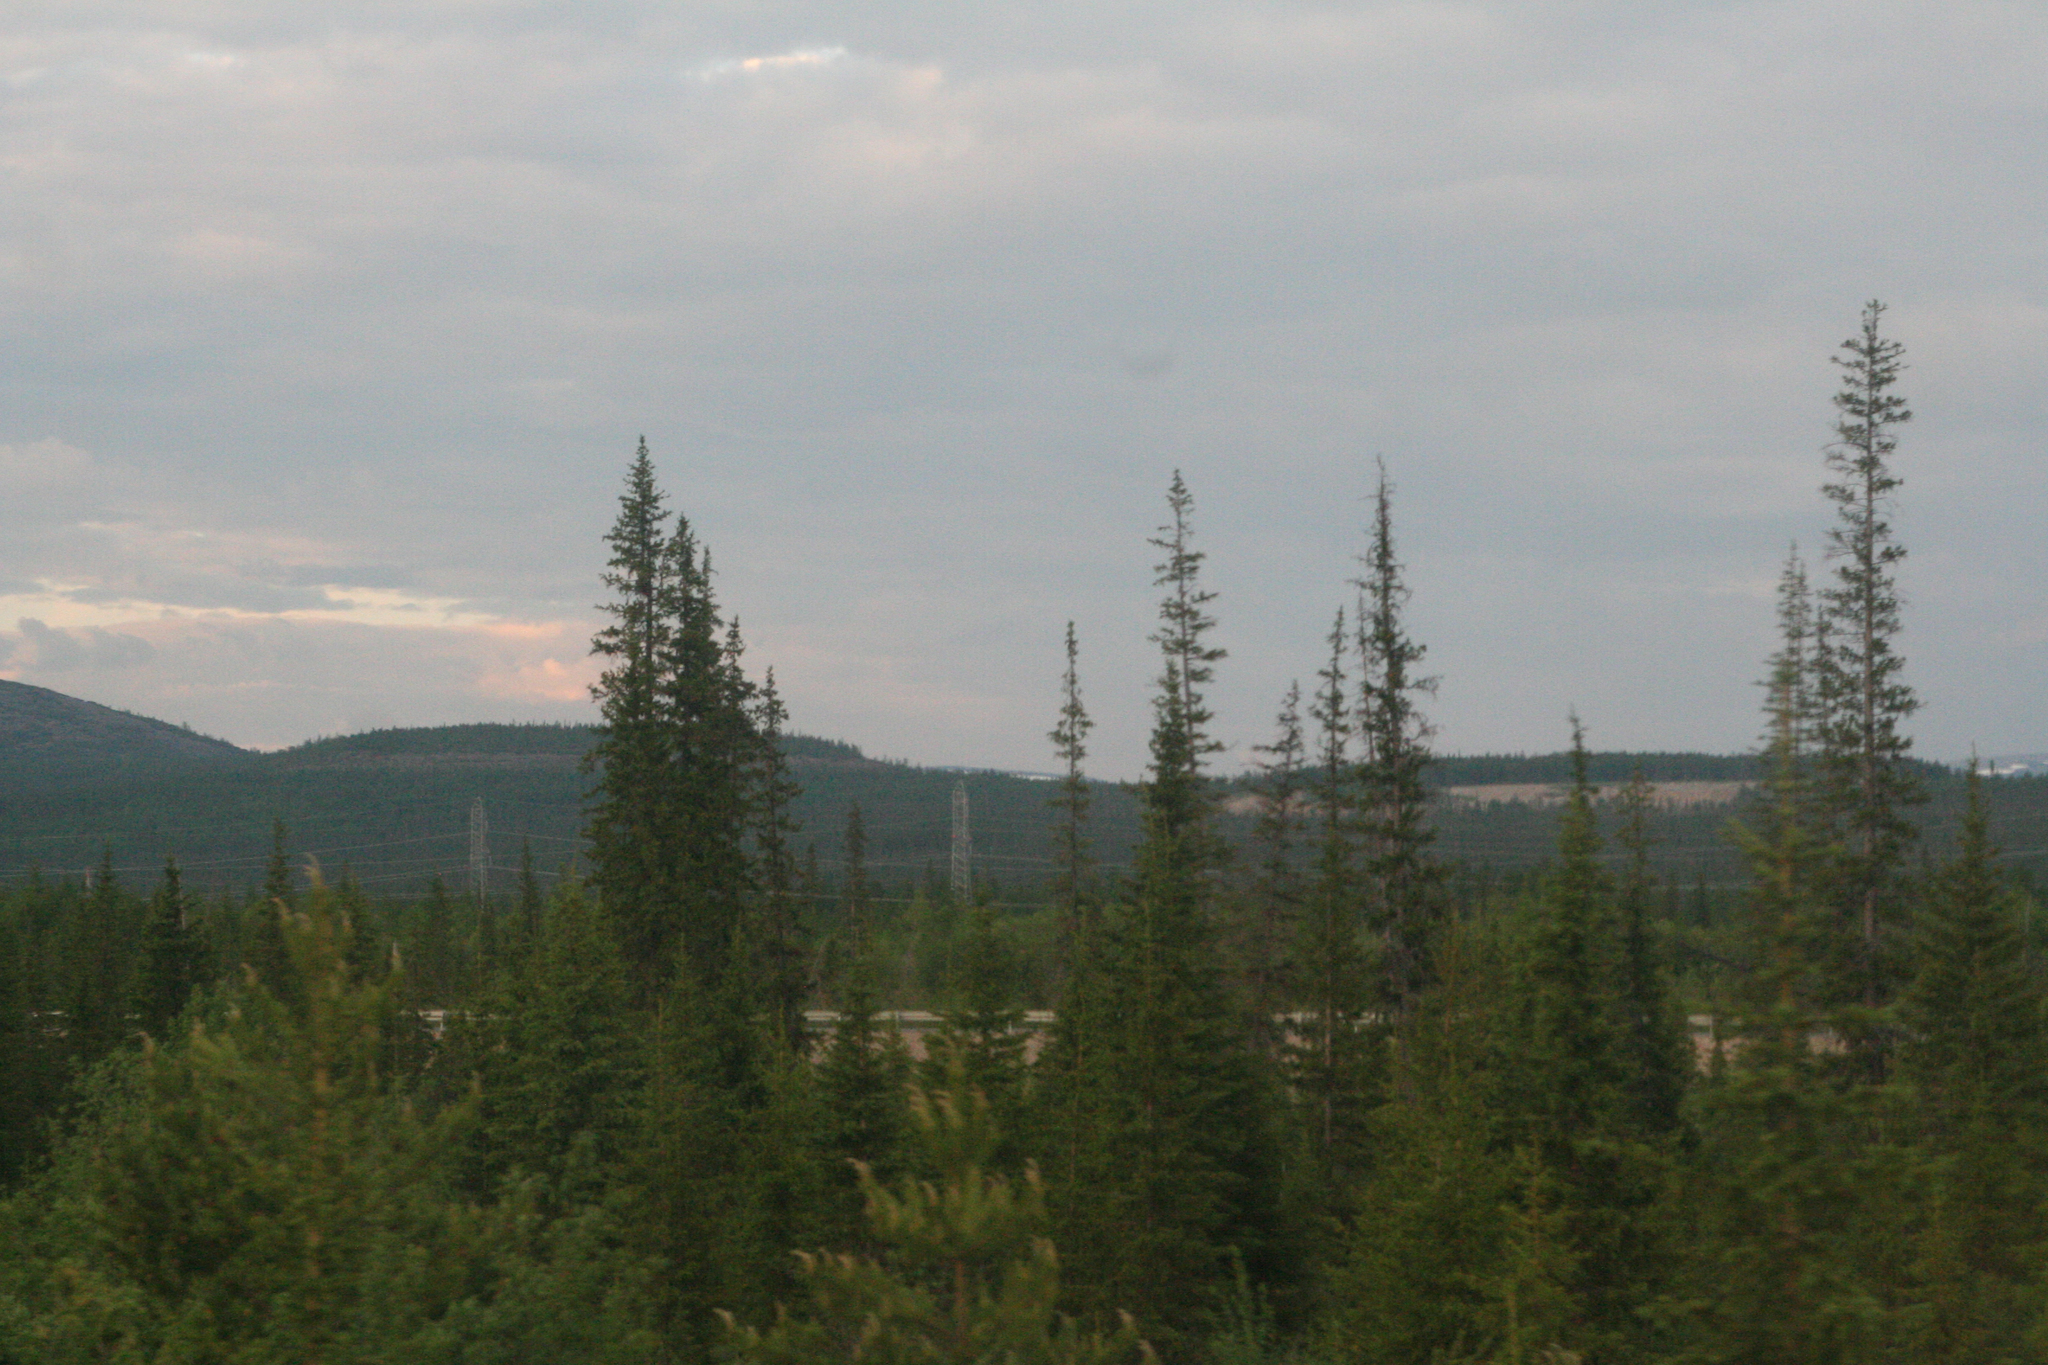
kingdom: Plantae
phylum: Tracheophyta
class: Pinopsida
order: Pinales
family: Pinaceae
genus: Picea
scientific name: Picea obovata
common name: Siberian spruce
